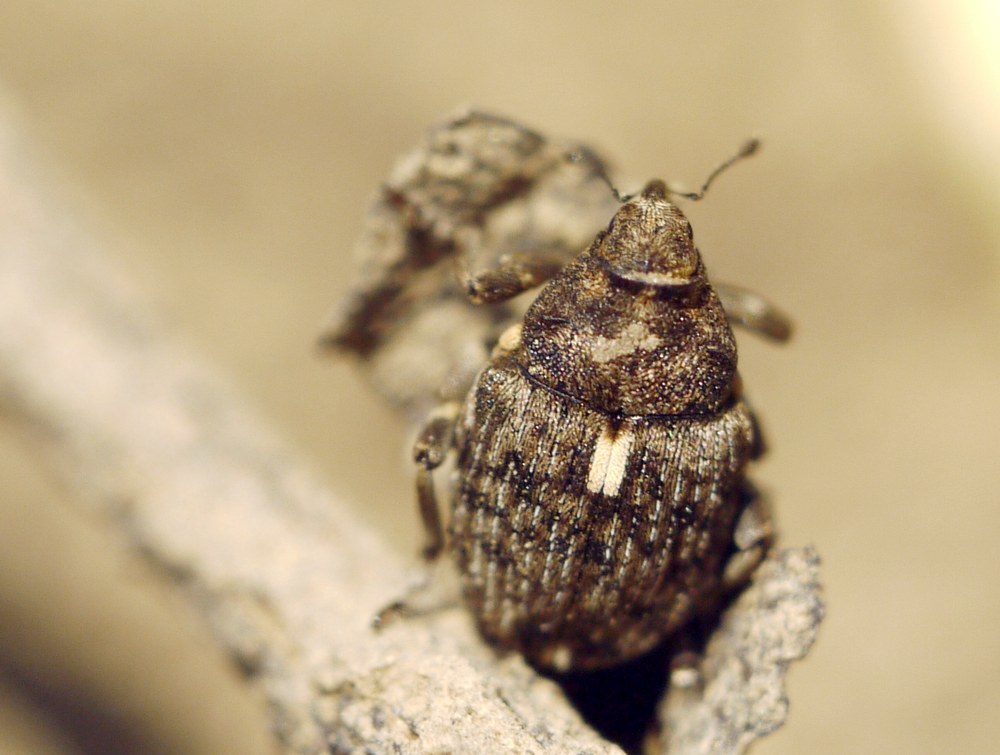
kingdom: Animalia
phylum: Arthropoda
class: Insecta
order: Coleoptera
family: Curculionidae
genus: Ethelcus
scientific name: Ethelcus denticulatus
